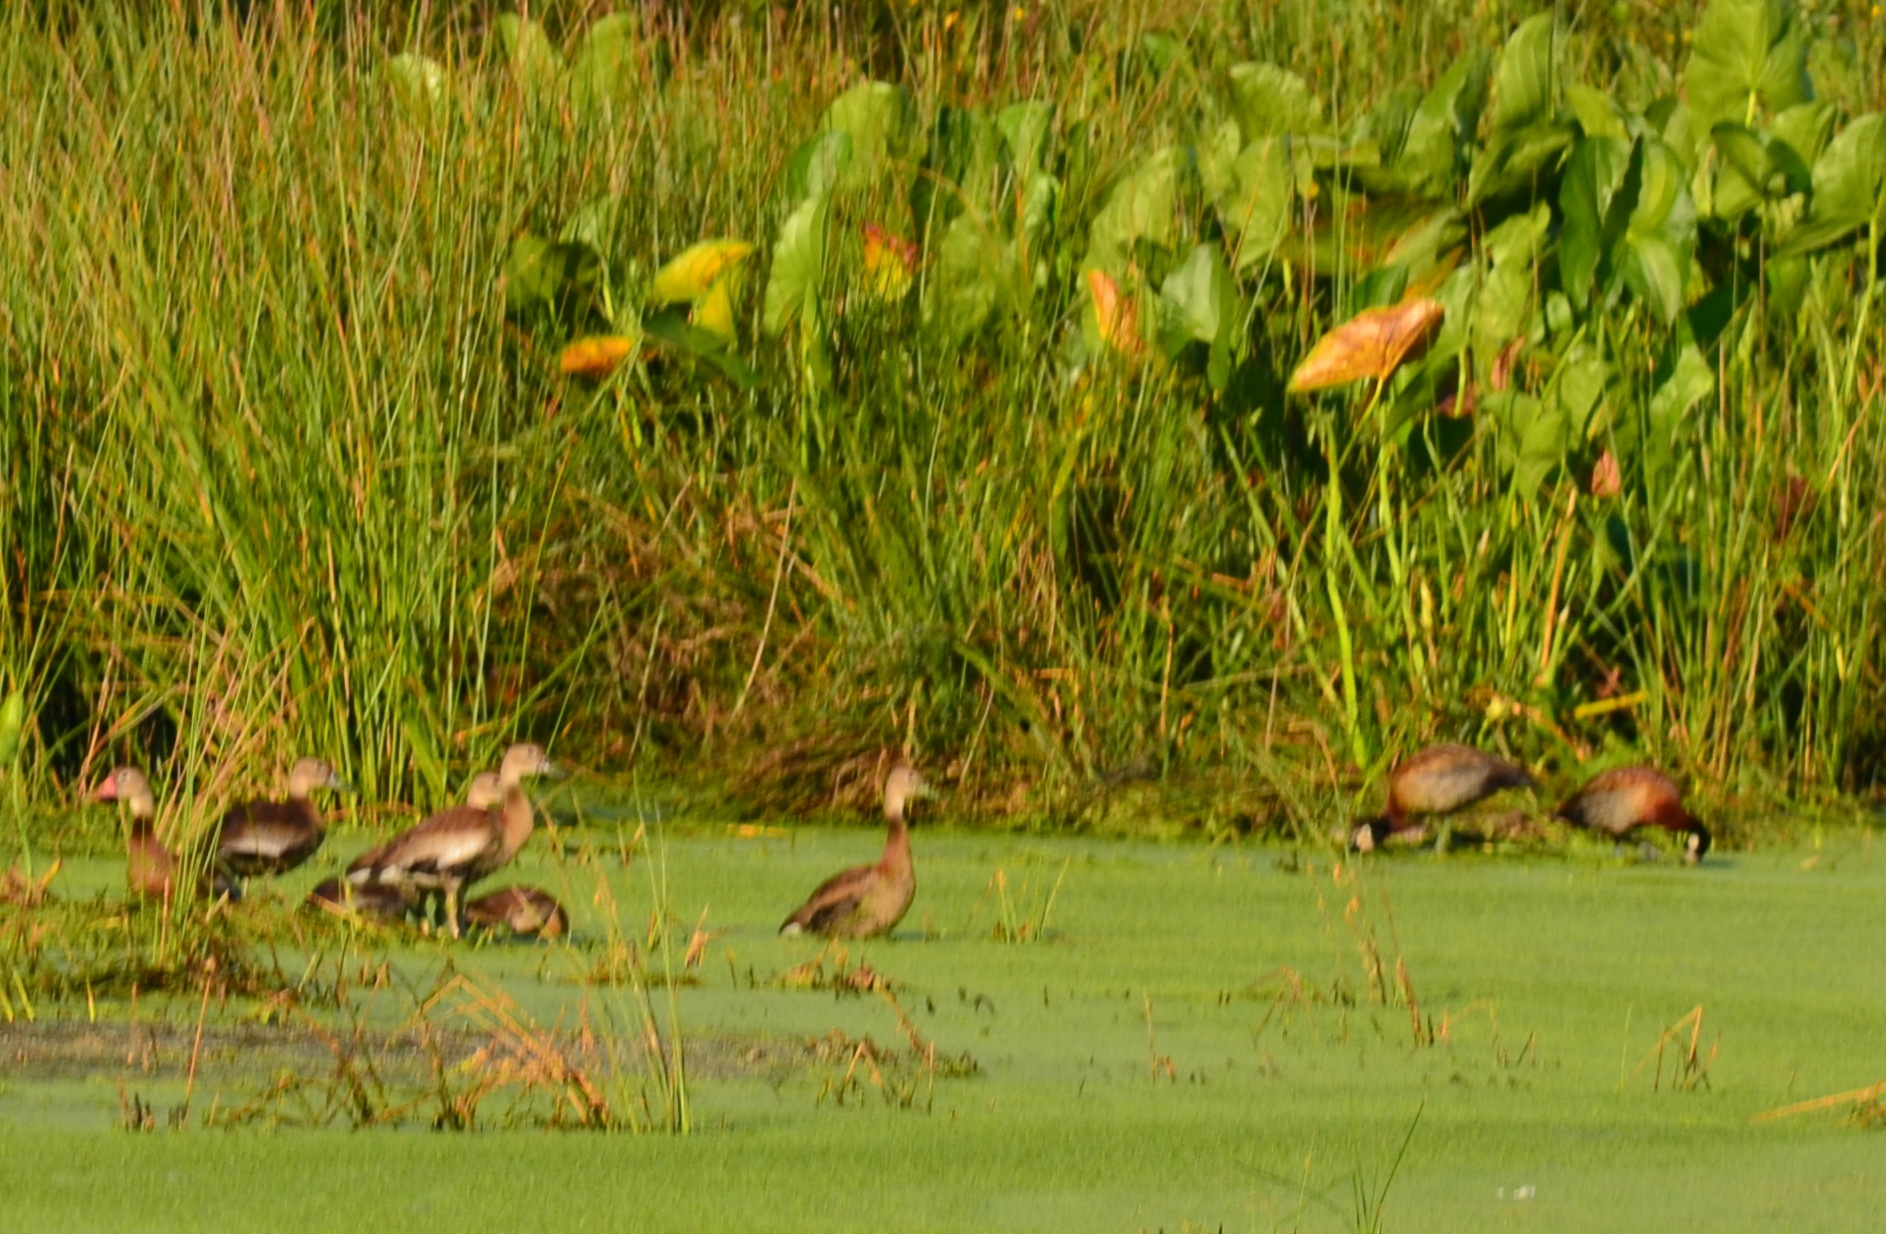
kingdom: Animalia
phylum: Chordata
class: Aves
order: Anseriformes
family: Anatidae
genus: Dendrocygna
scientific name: Dendrocygna viduata
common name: White-faced whistling duck
